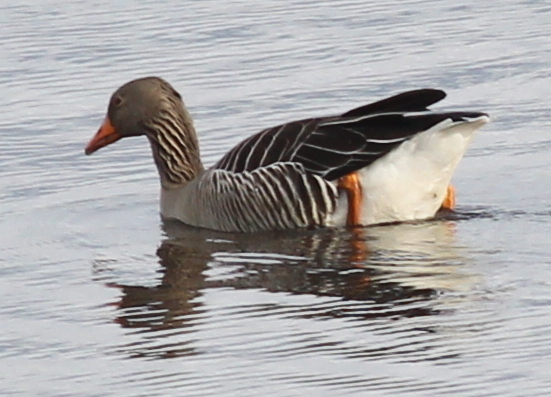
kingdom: Animalia
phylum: Chordata
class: Aves
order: Anseriformes
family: Anatidae
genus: Anser
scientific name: Anser anser
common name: Greylag goose
